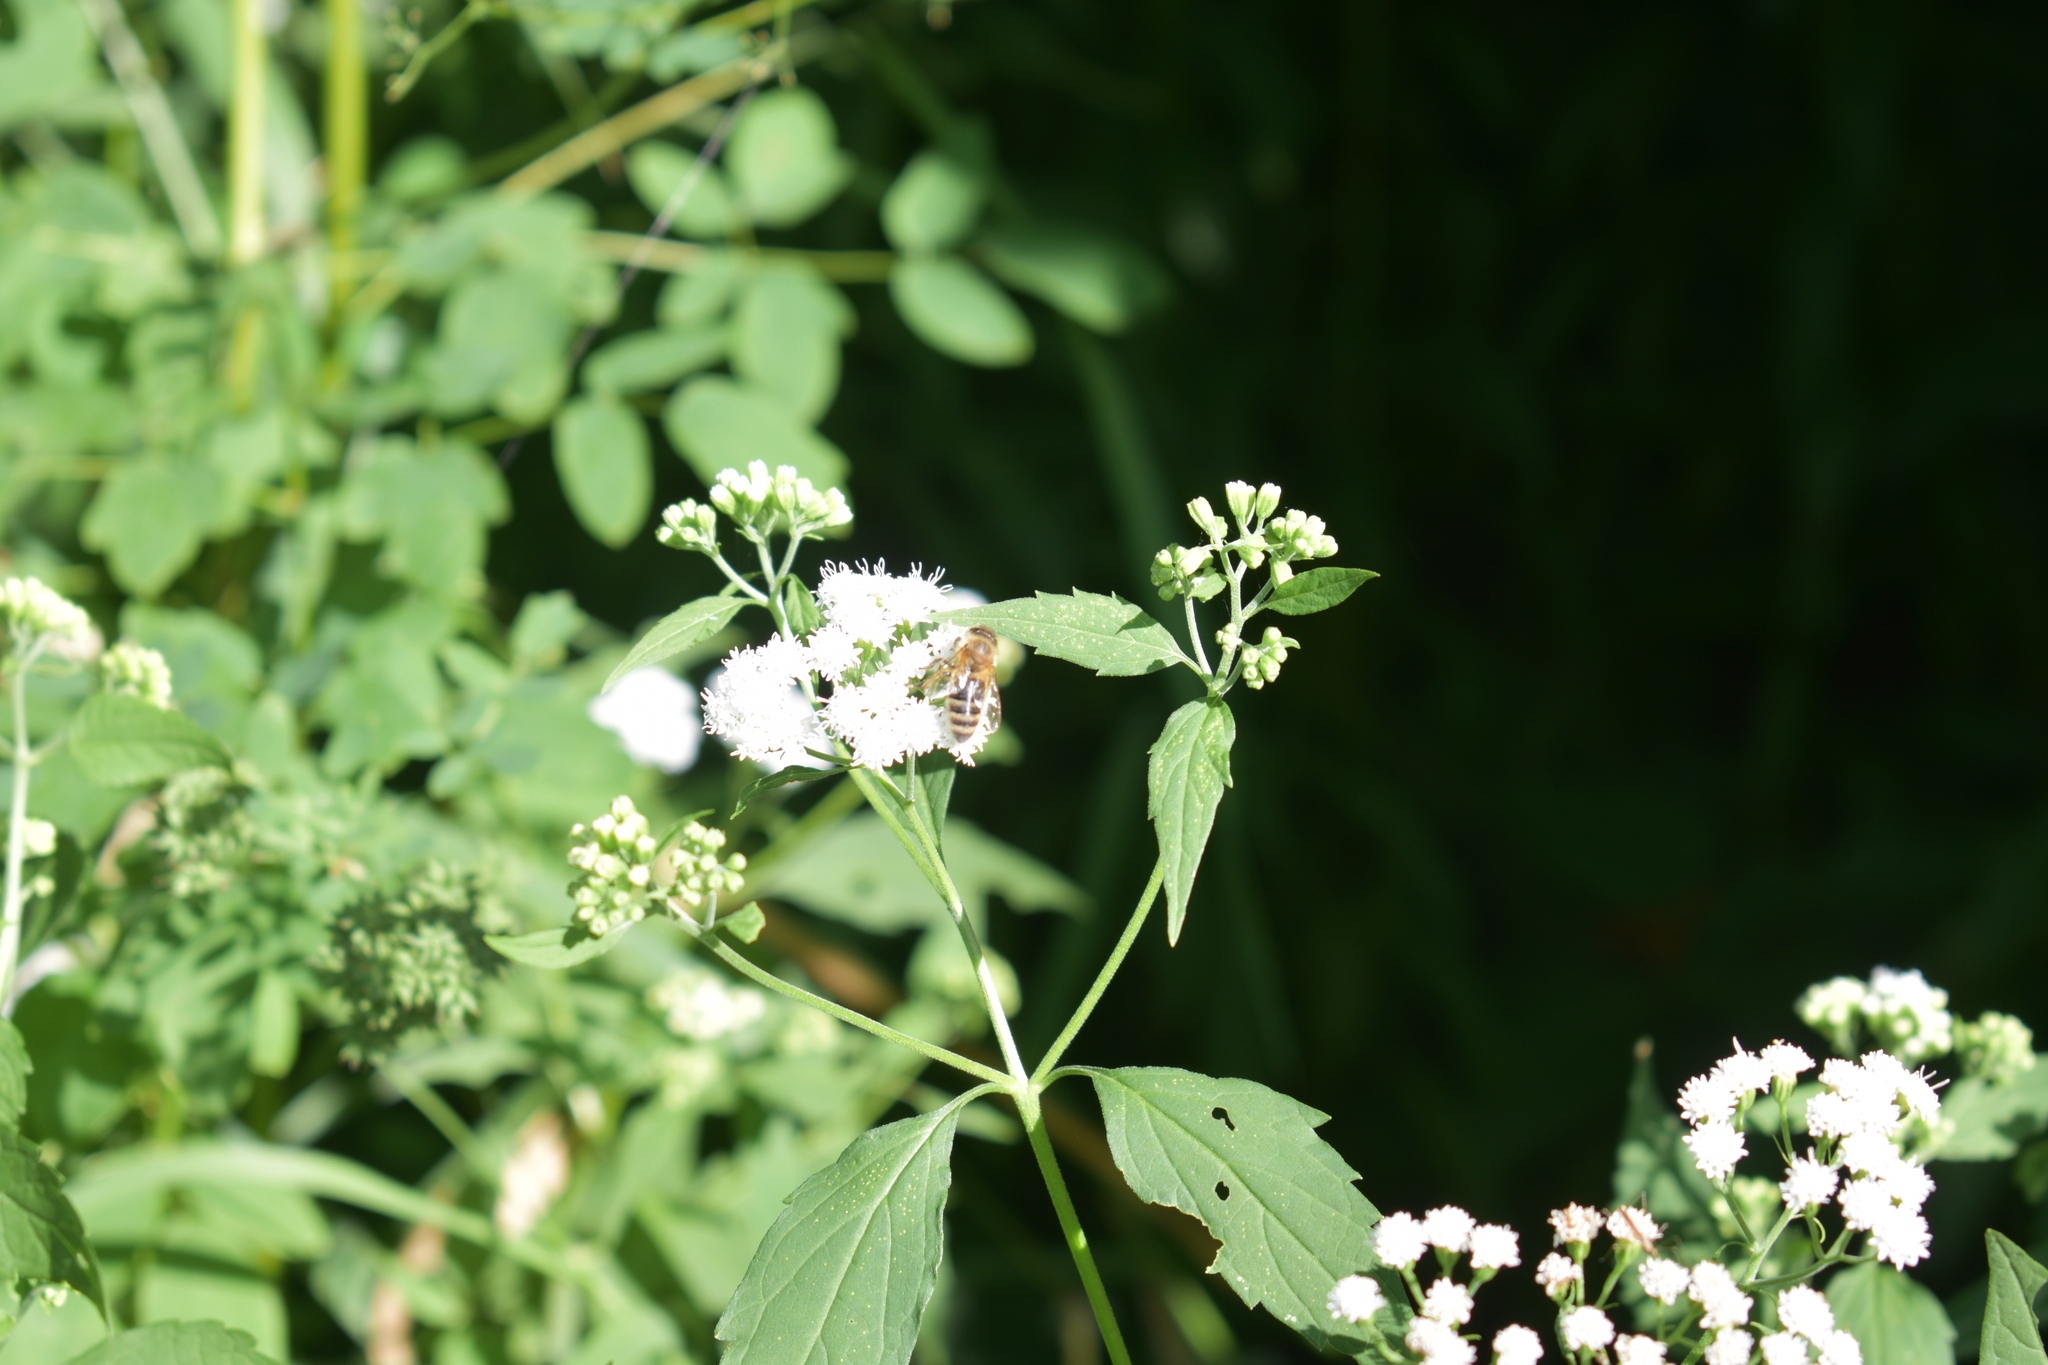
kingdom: Animalia
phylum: Arthropoda
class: Insecta
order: Hymenoptera
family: Apidae
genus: Apis
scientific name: Apis mellifera
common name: Honey bee
